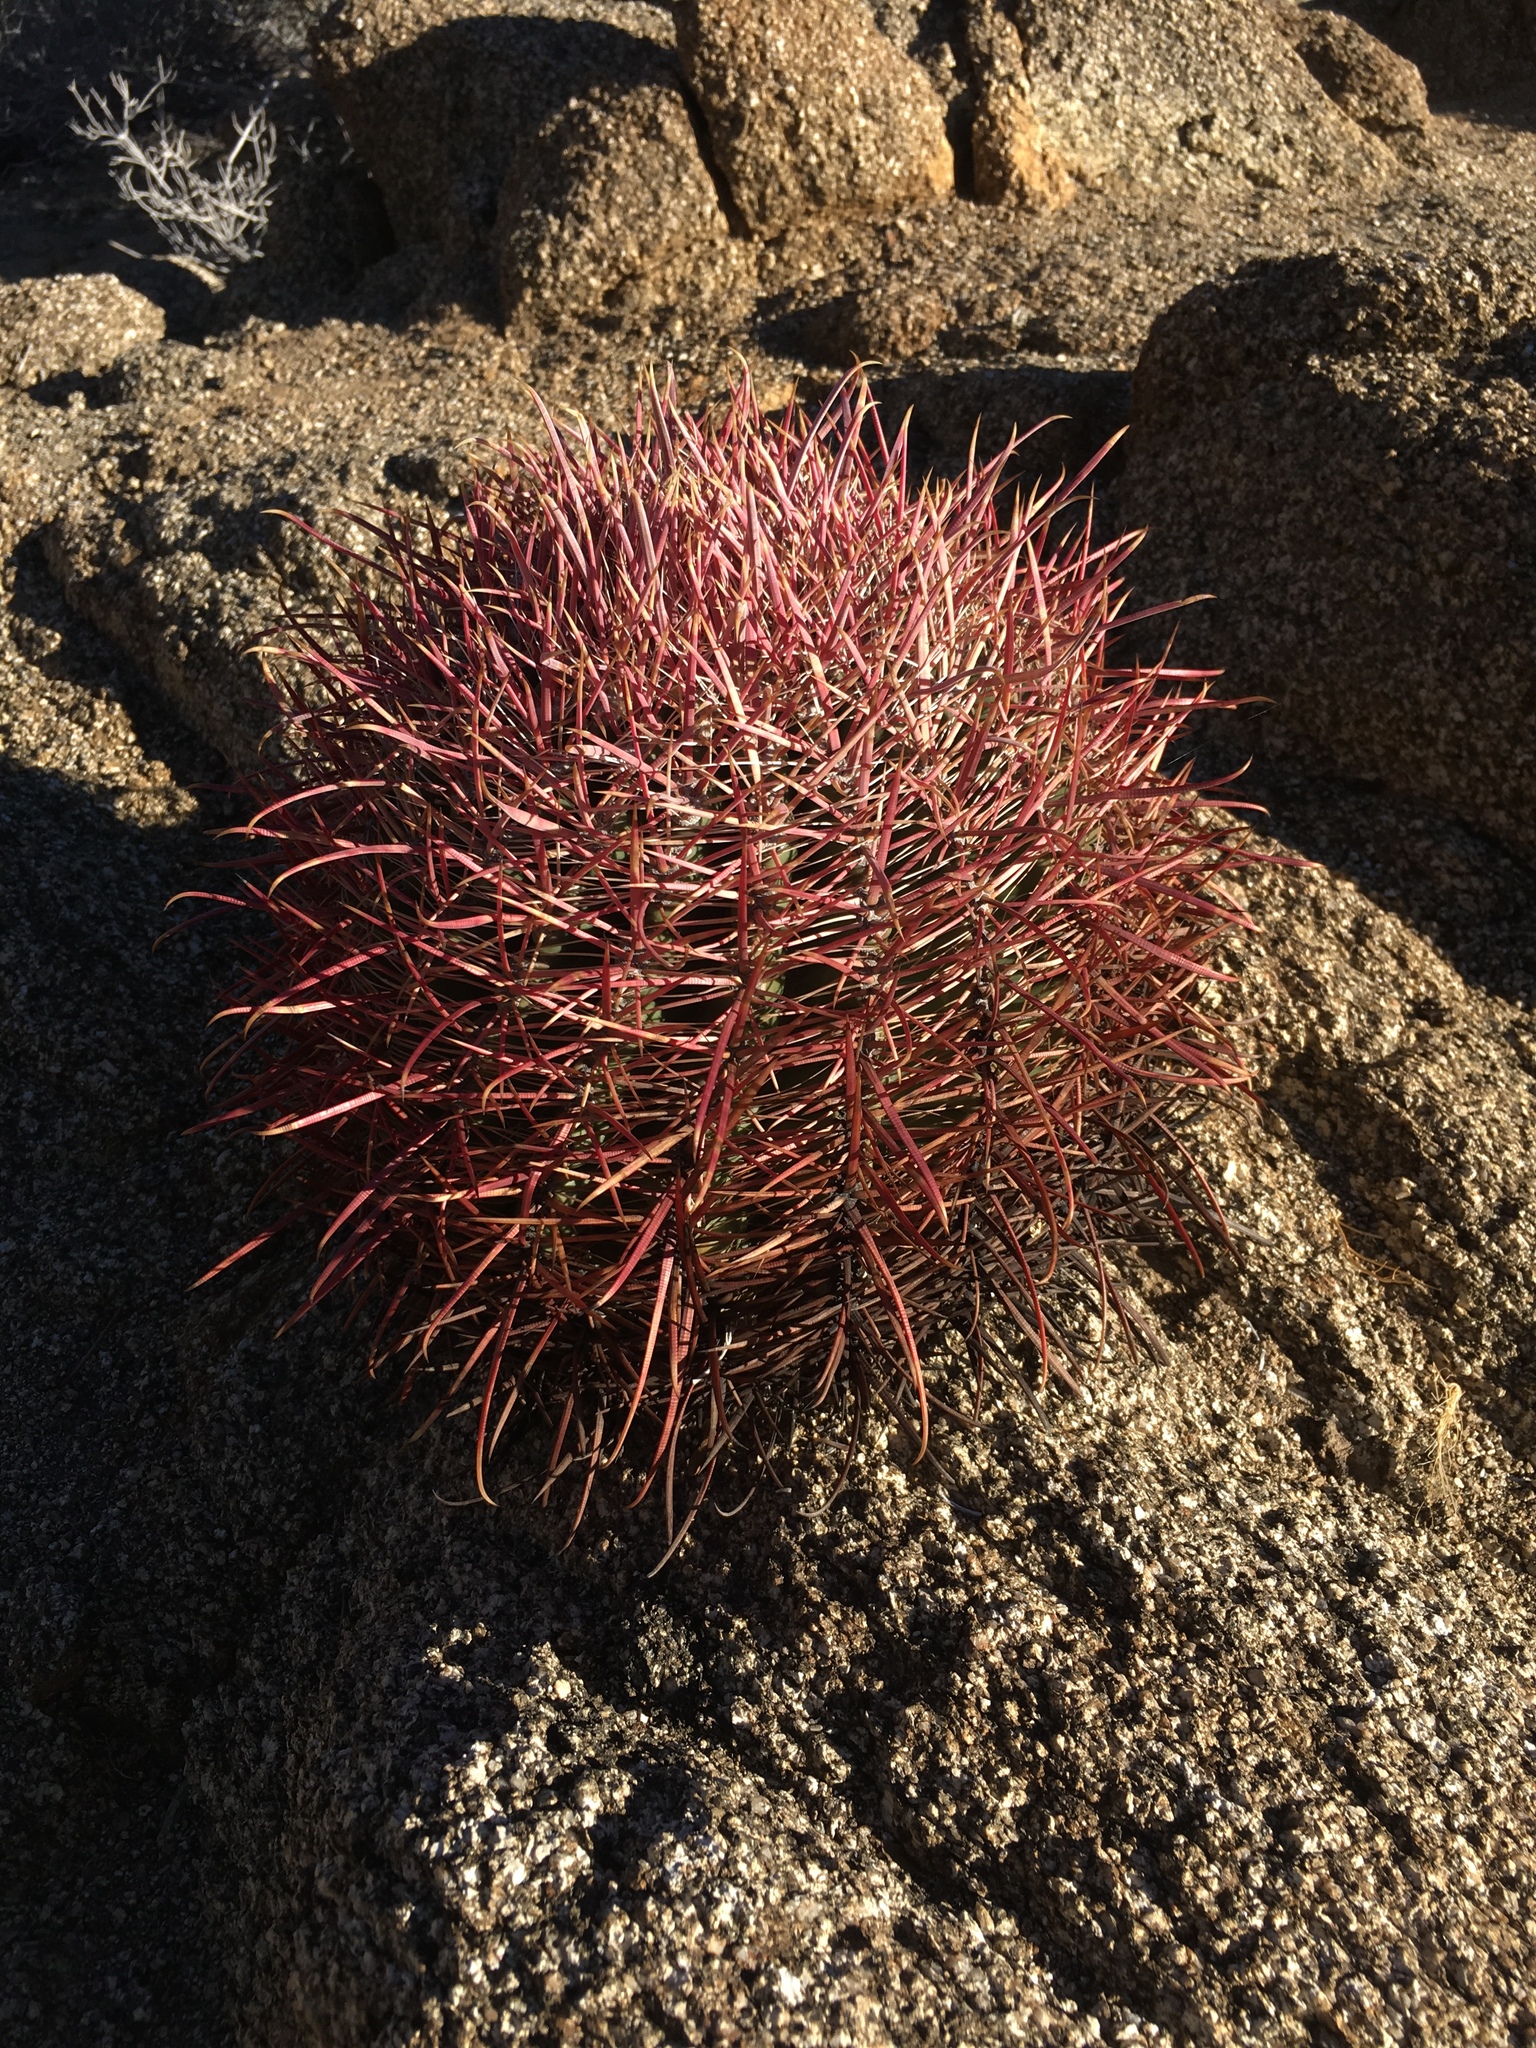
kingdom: Plantae
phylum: Tracheophyta
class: Magnoliopsida
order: Caryophyllales
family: Cactaceae
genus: Ferocactus
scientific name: Ferocactus cylindraceus
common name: California barrel cactus
